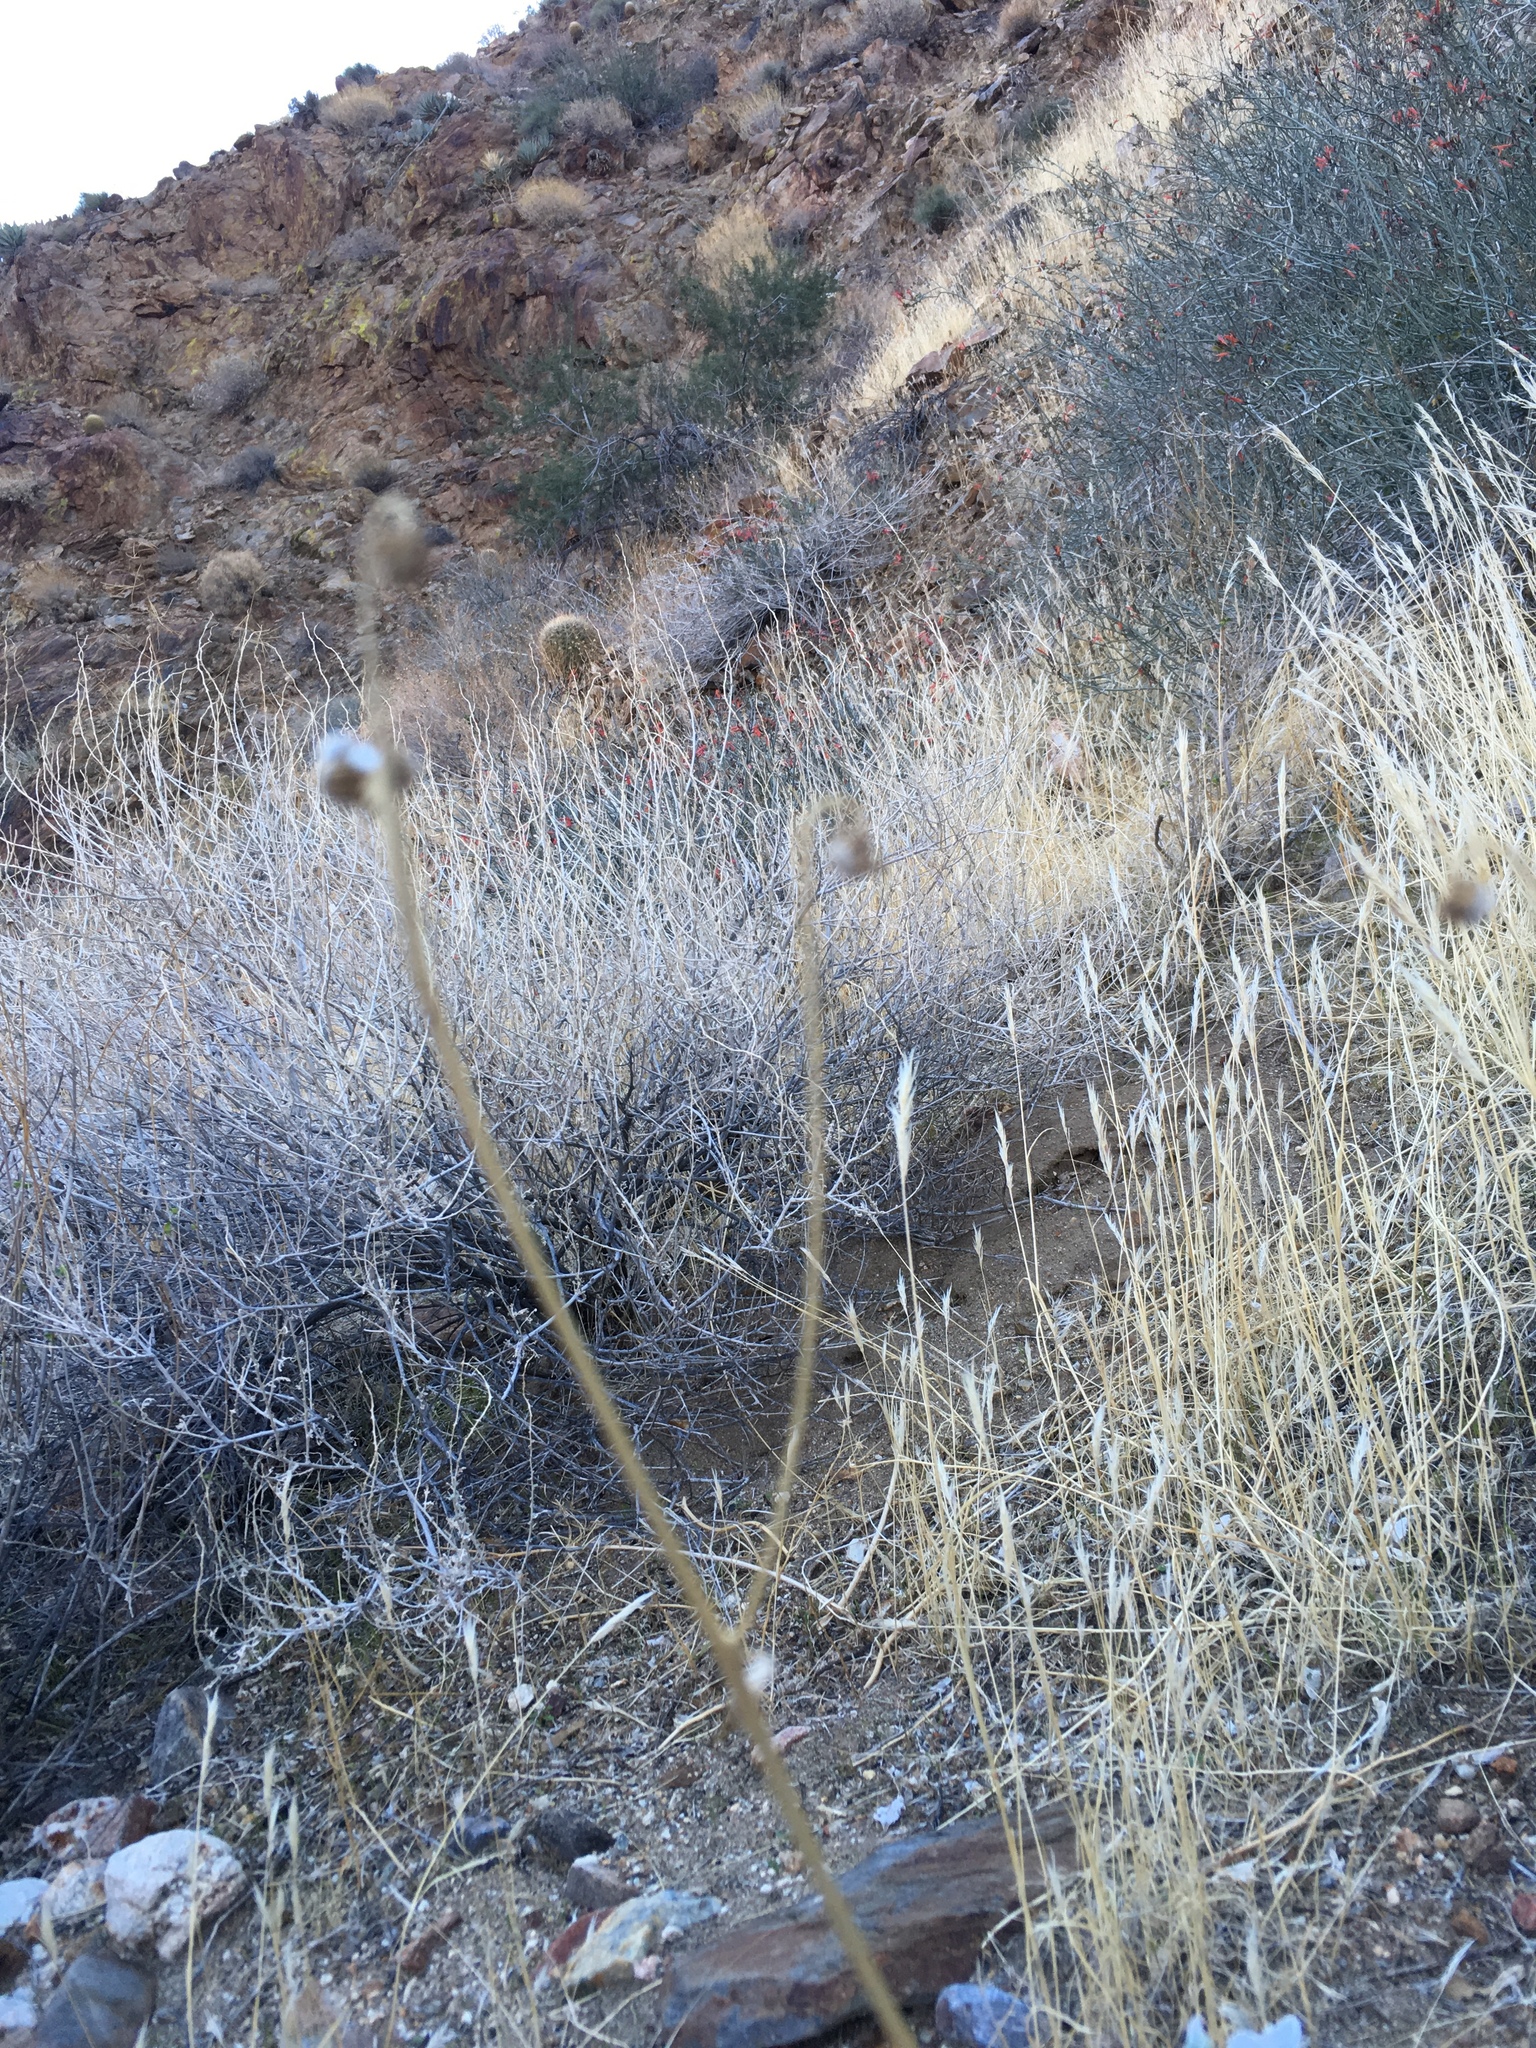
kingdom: Plantae
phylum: Tracheophyta
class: Magnoliopsida
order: Asterales
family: Asteraceae
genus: Encelia
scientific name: Encelia farinosa
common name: Brittlebush
